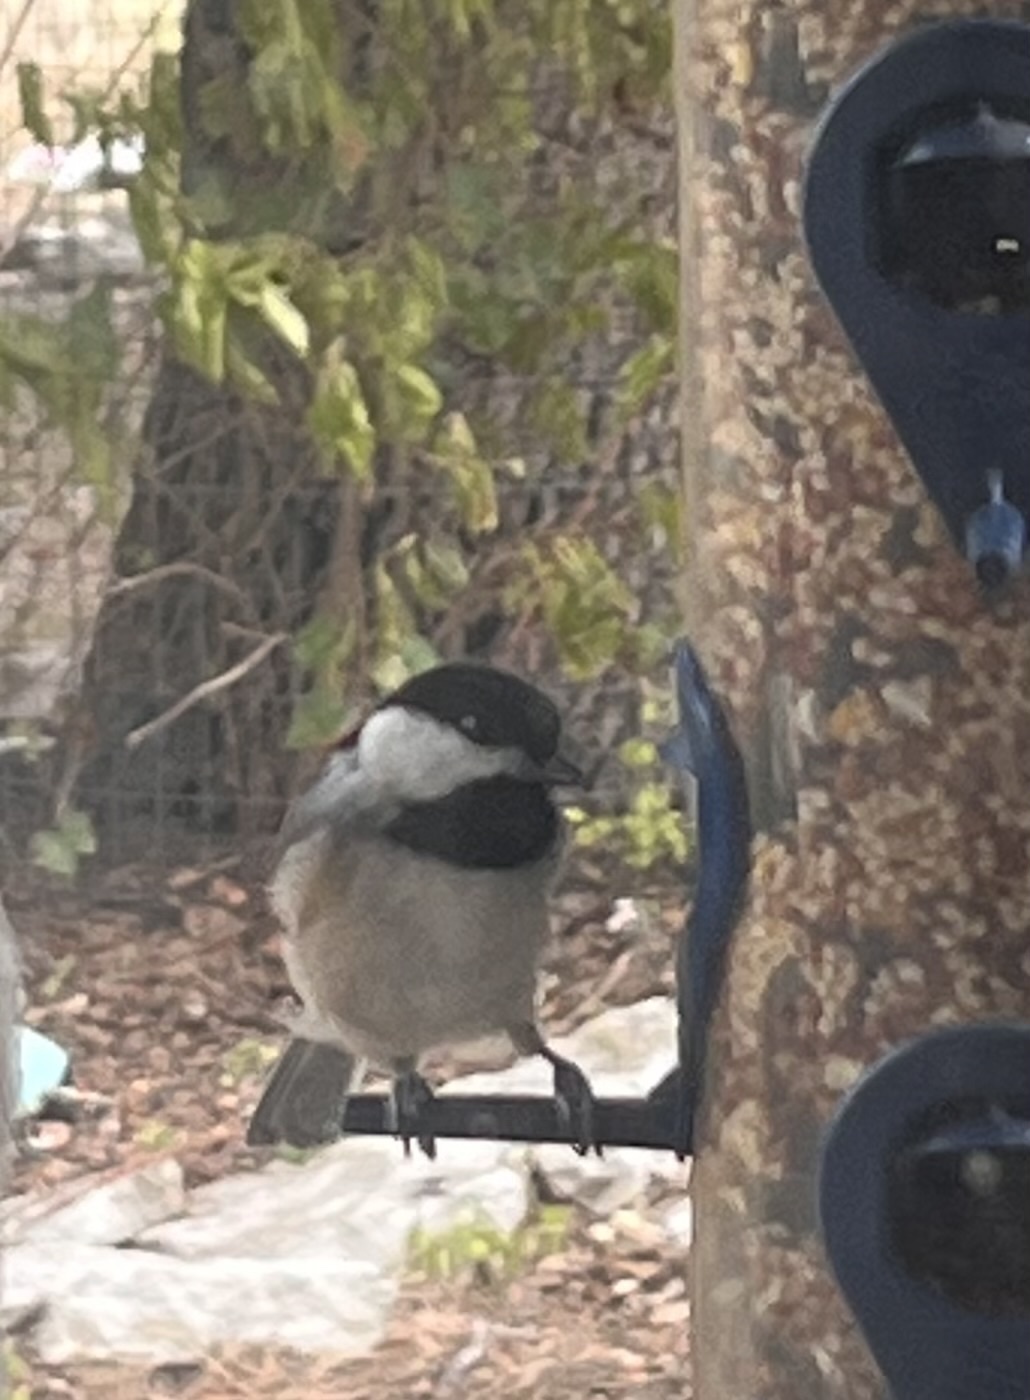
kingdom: Animalia
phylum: Chordata
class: Aves
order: Passeriformes
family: Paridae
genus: Poecile
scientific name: Poecile carolinensis
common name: Carolina chickadee
